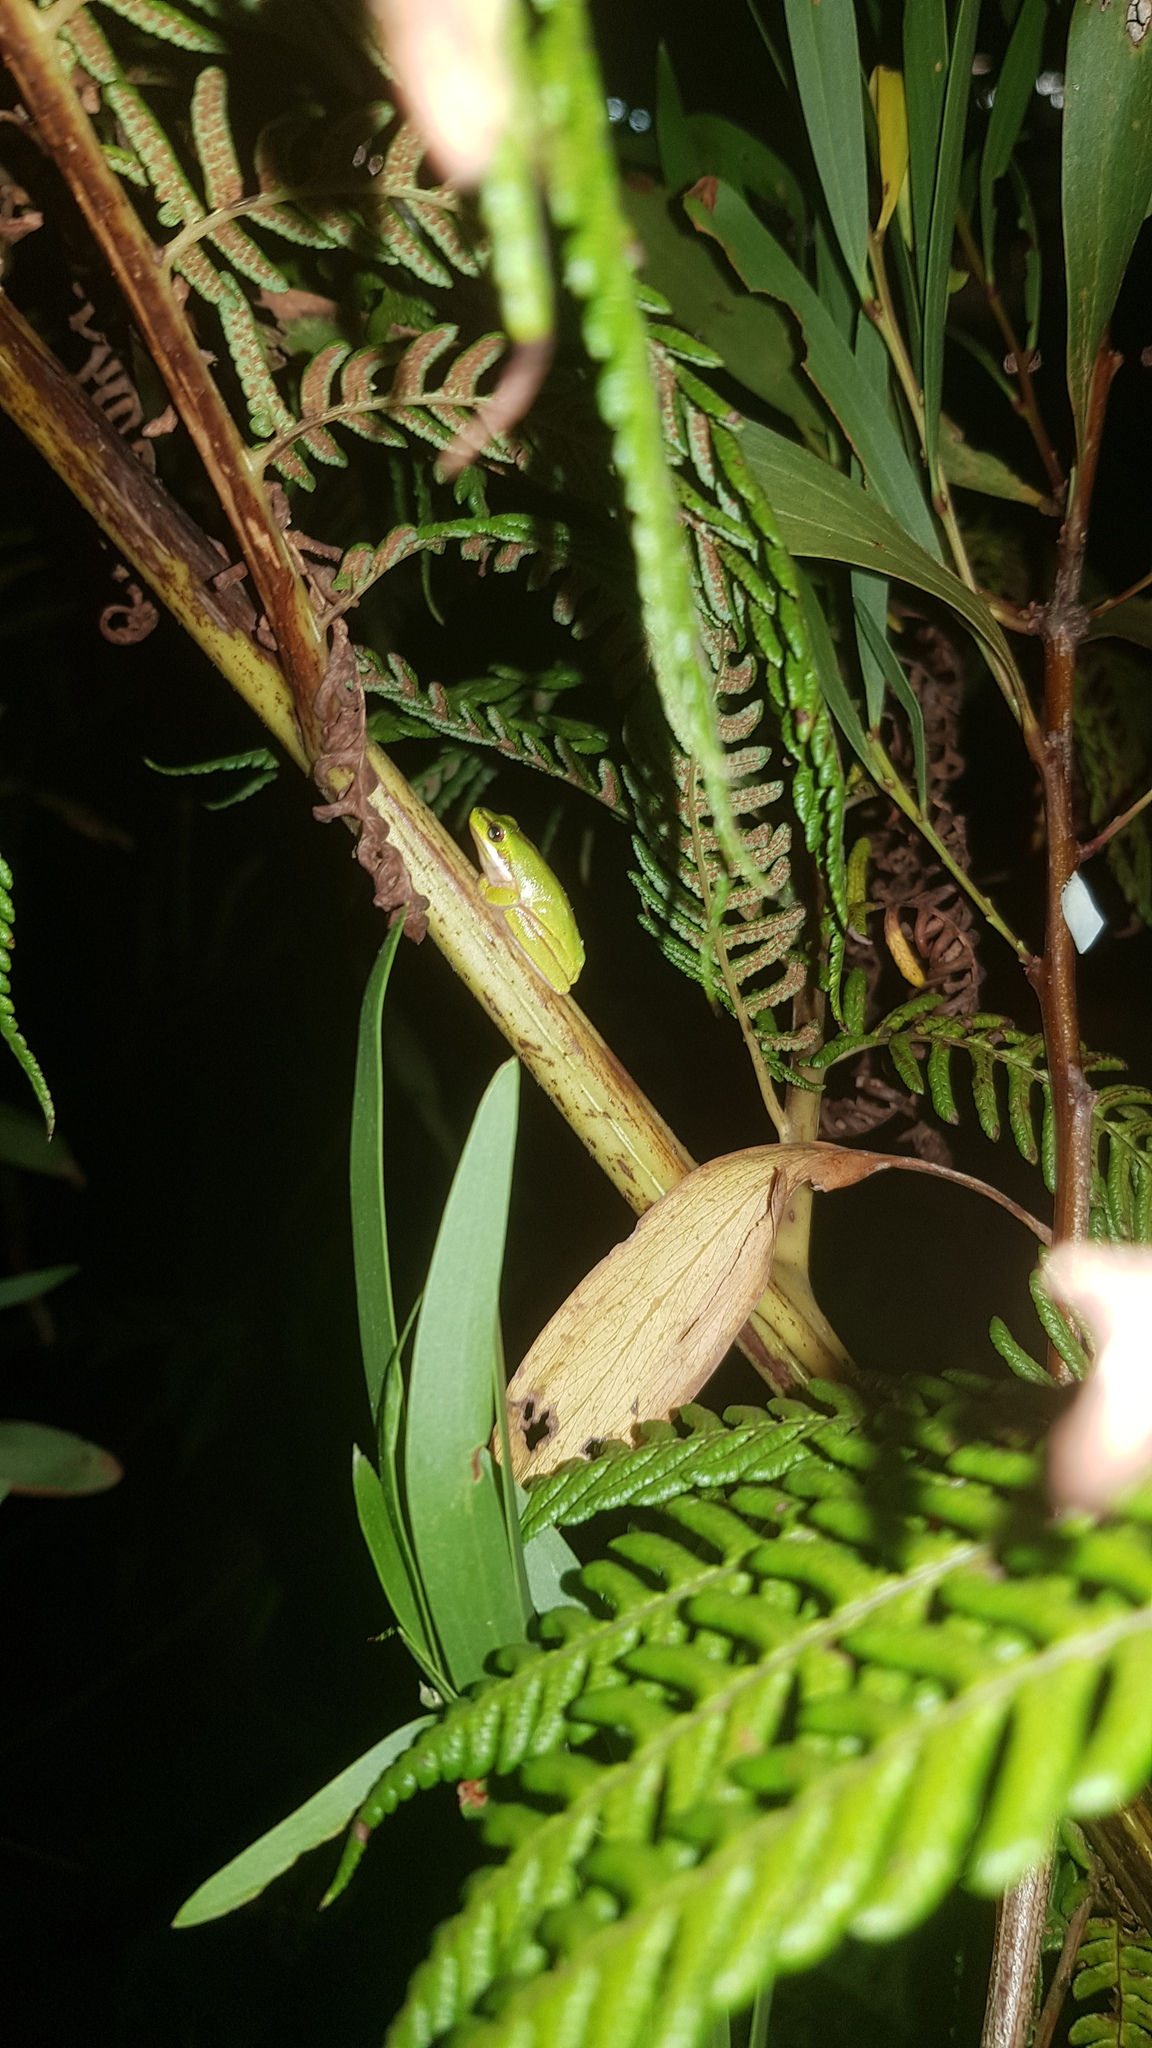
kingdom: Animalia
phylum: Chordata
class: Amphibia
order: Anura
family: Pelodryadidae
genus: Litoria
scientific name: Litoria fallax
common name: Eastern dwarf treefrog
